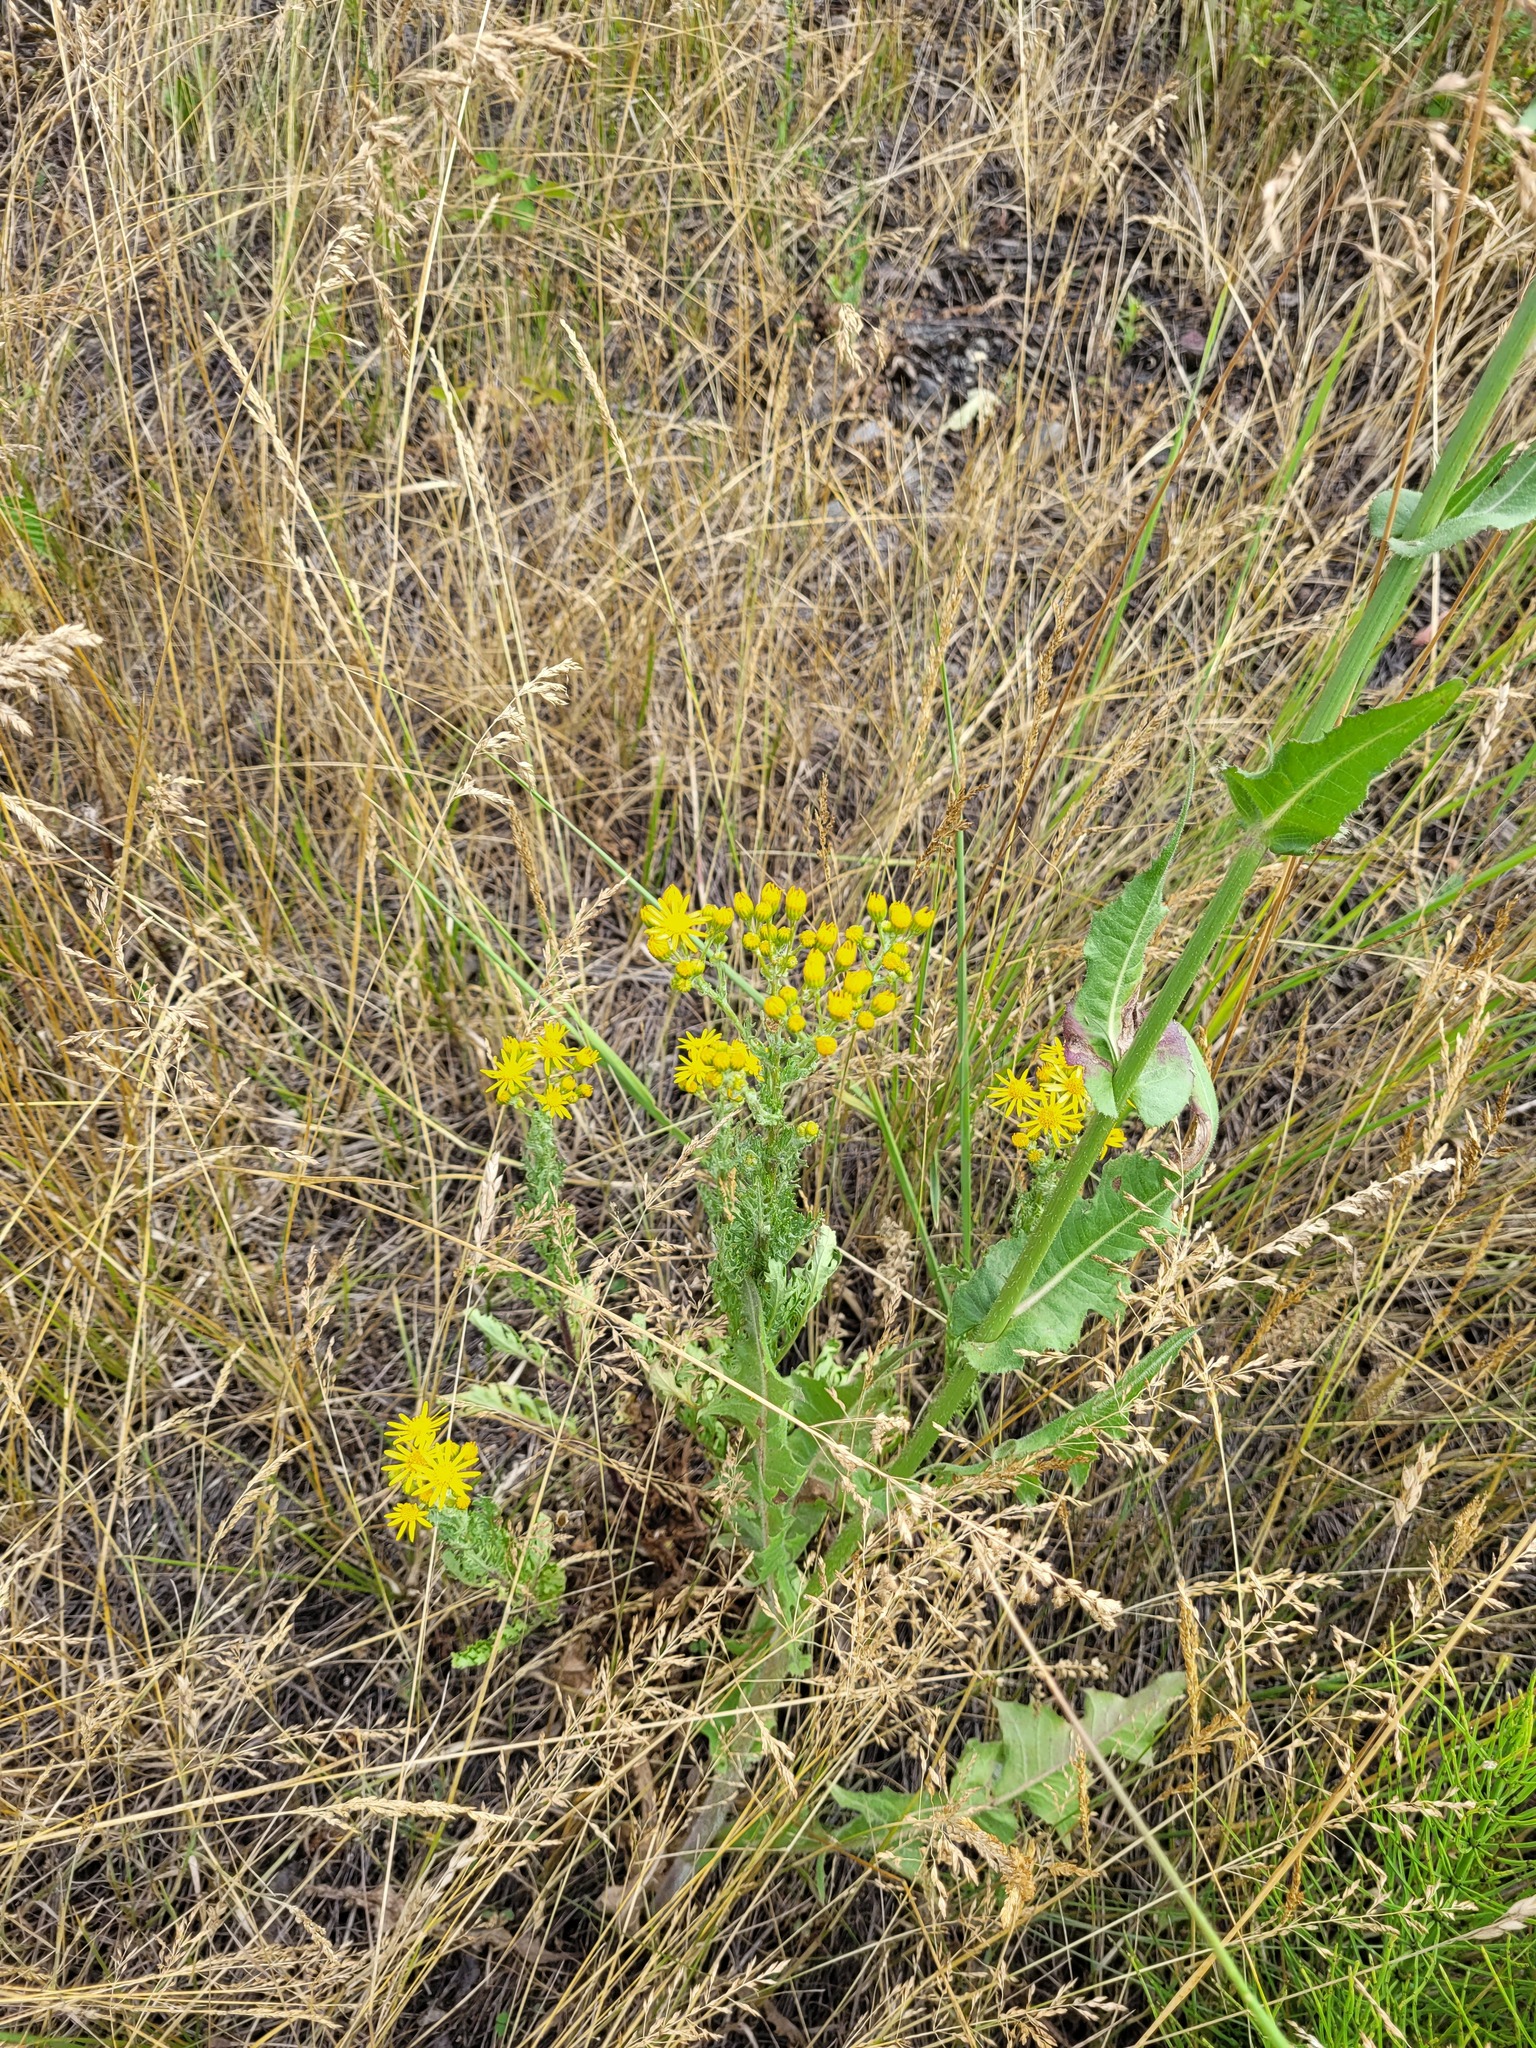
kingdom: Plantae
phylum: Tracheophyta
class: Magnoliopsida
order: Asterales
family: Asteraceae
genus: Jacobaea
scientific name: Jacobaea vulgaris
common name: Stinking willie
